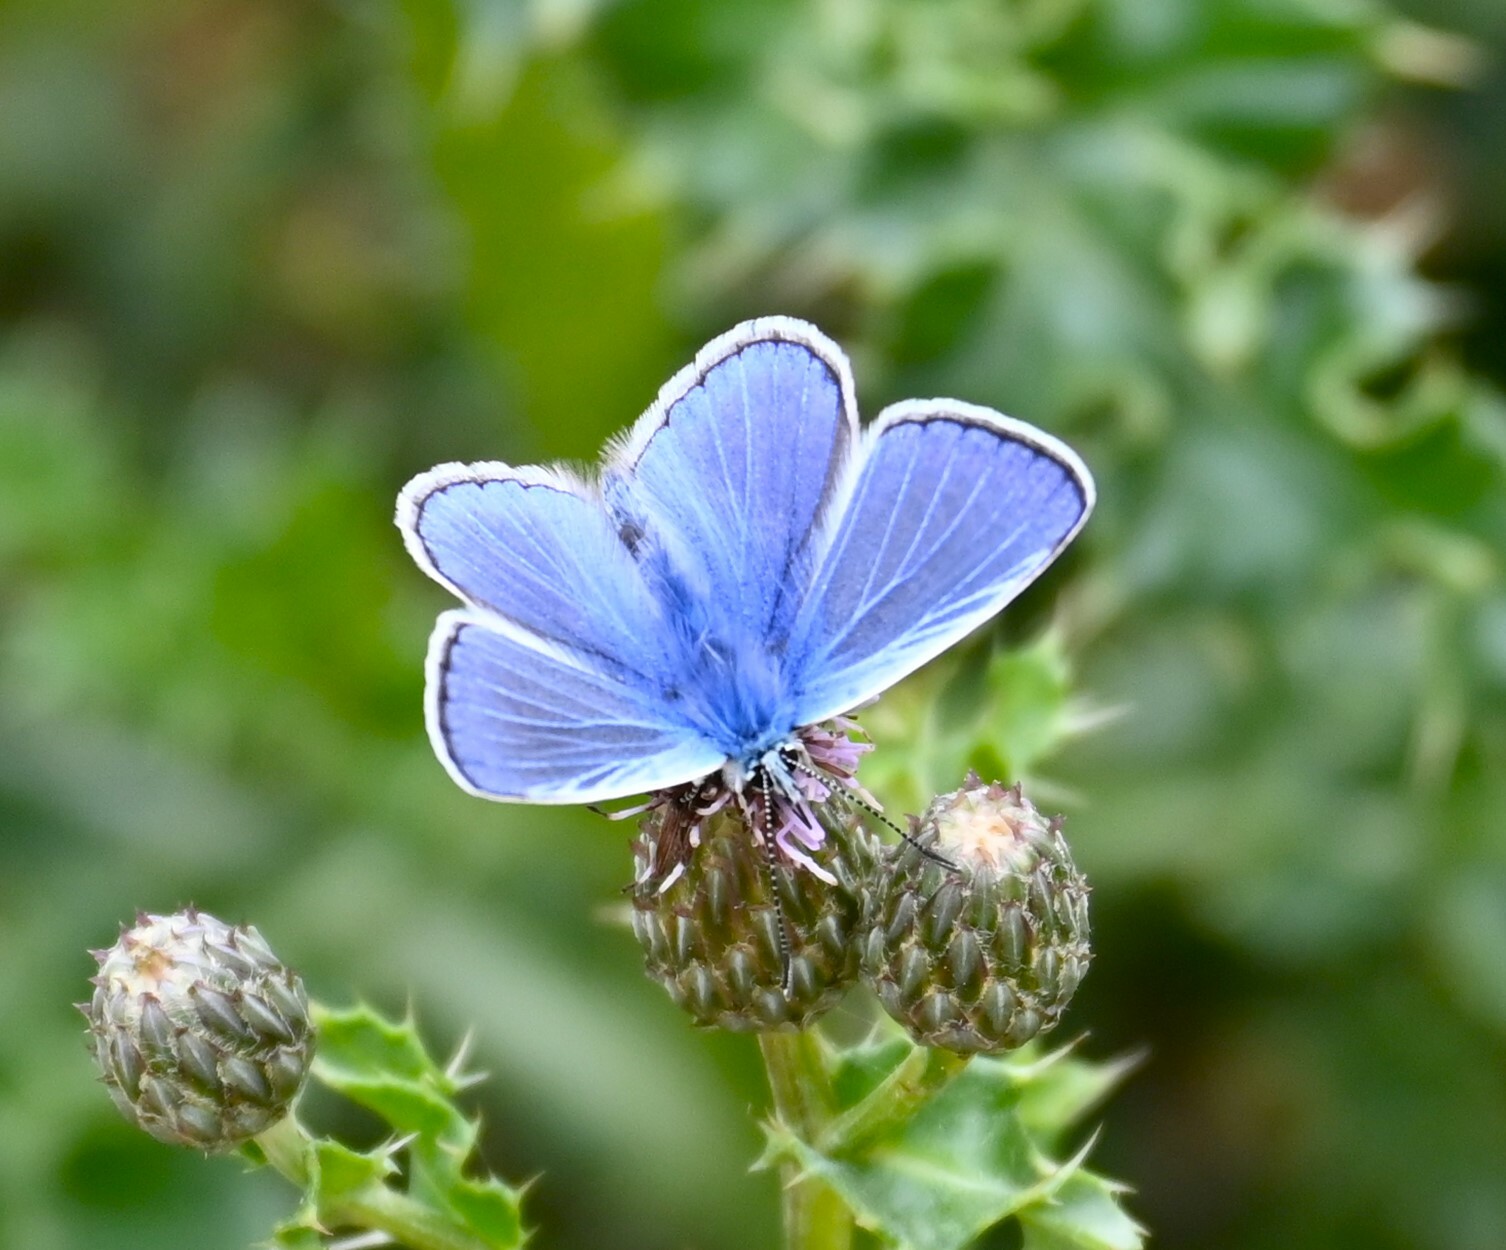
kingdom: Animalia
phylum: Arthropoda
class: Insecta
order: Lepidoptera
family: Lycaenidae
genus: Polyommatus
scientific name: Polyommatus icarus
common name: Common blue
